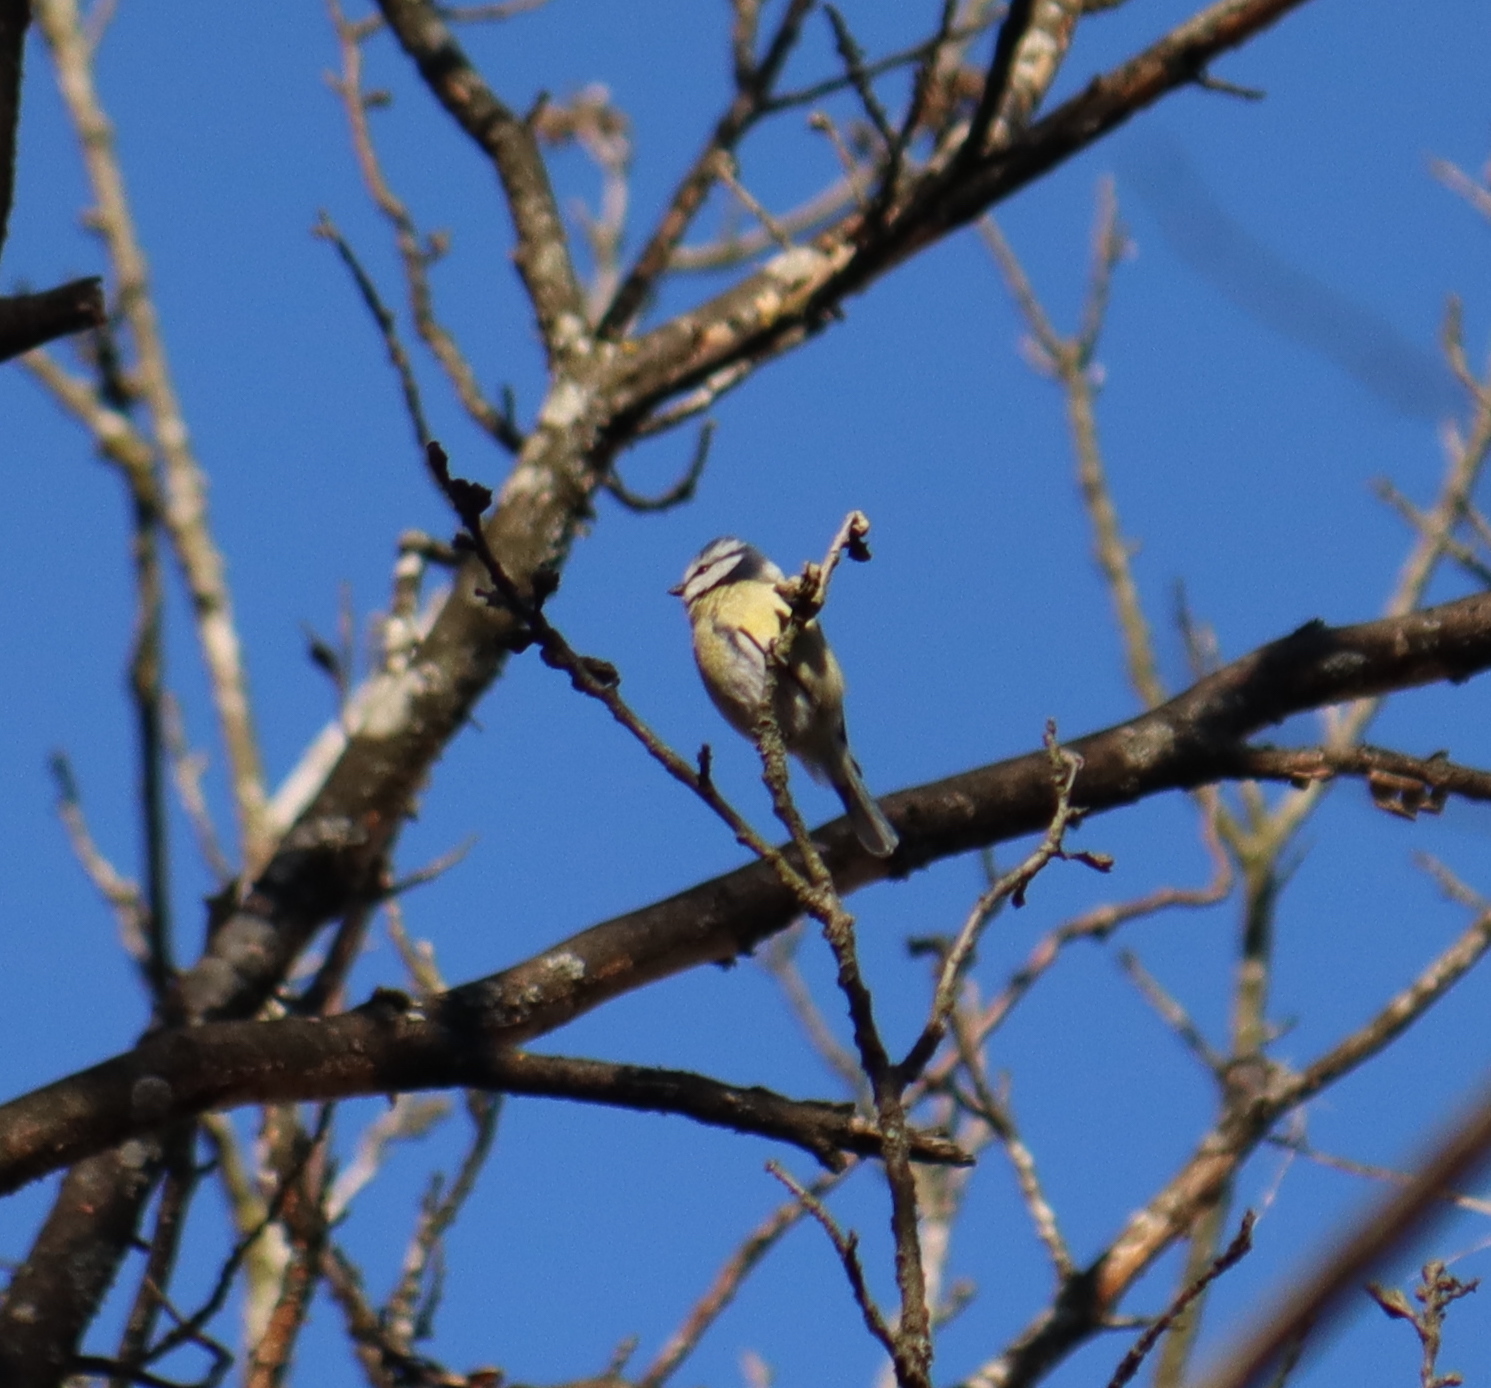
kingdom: Animalia
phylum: Chordata
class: Aves
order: Passeriformes
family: Paridae
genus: Cyanistes
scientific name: Cyanistes caeruleus
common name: Eurasian blue tit
